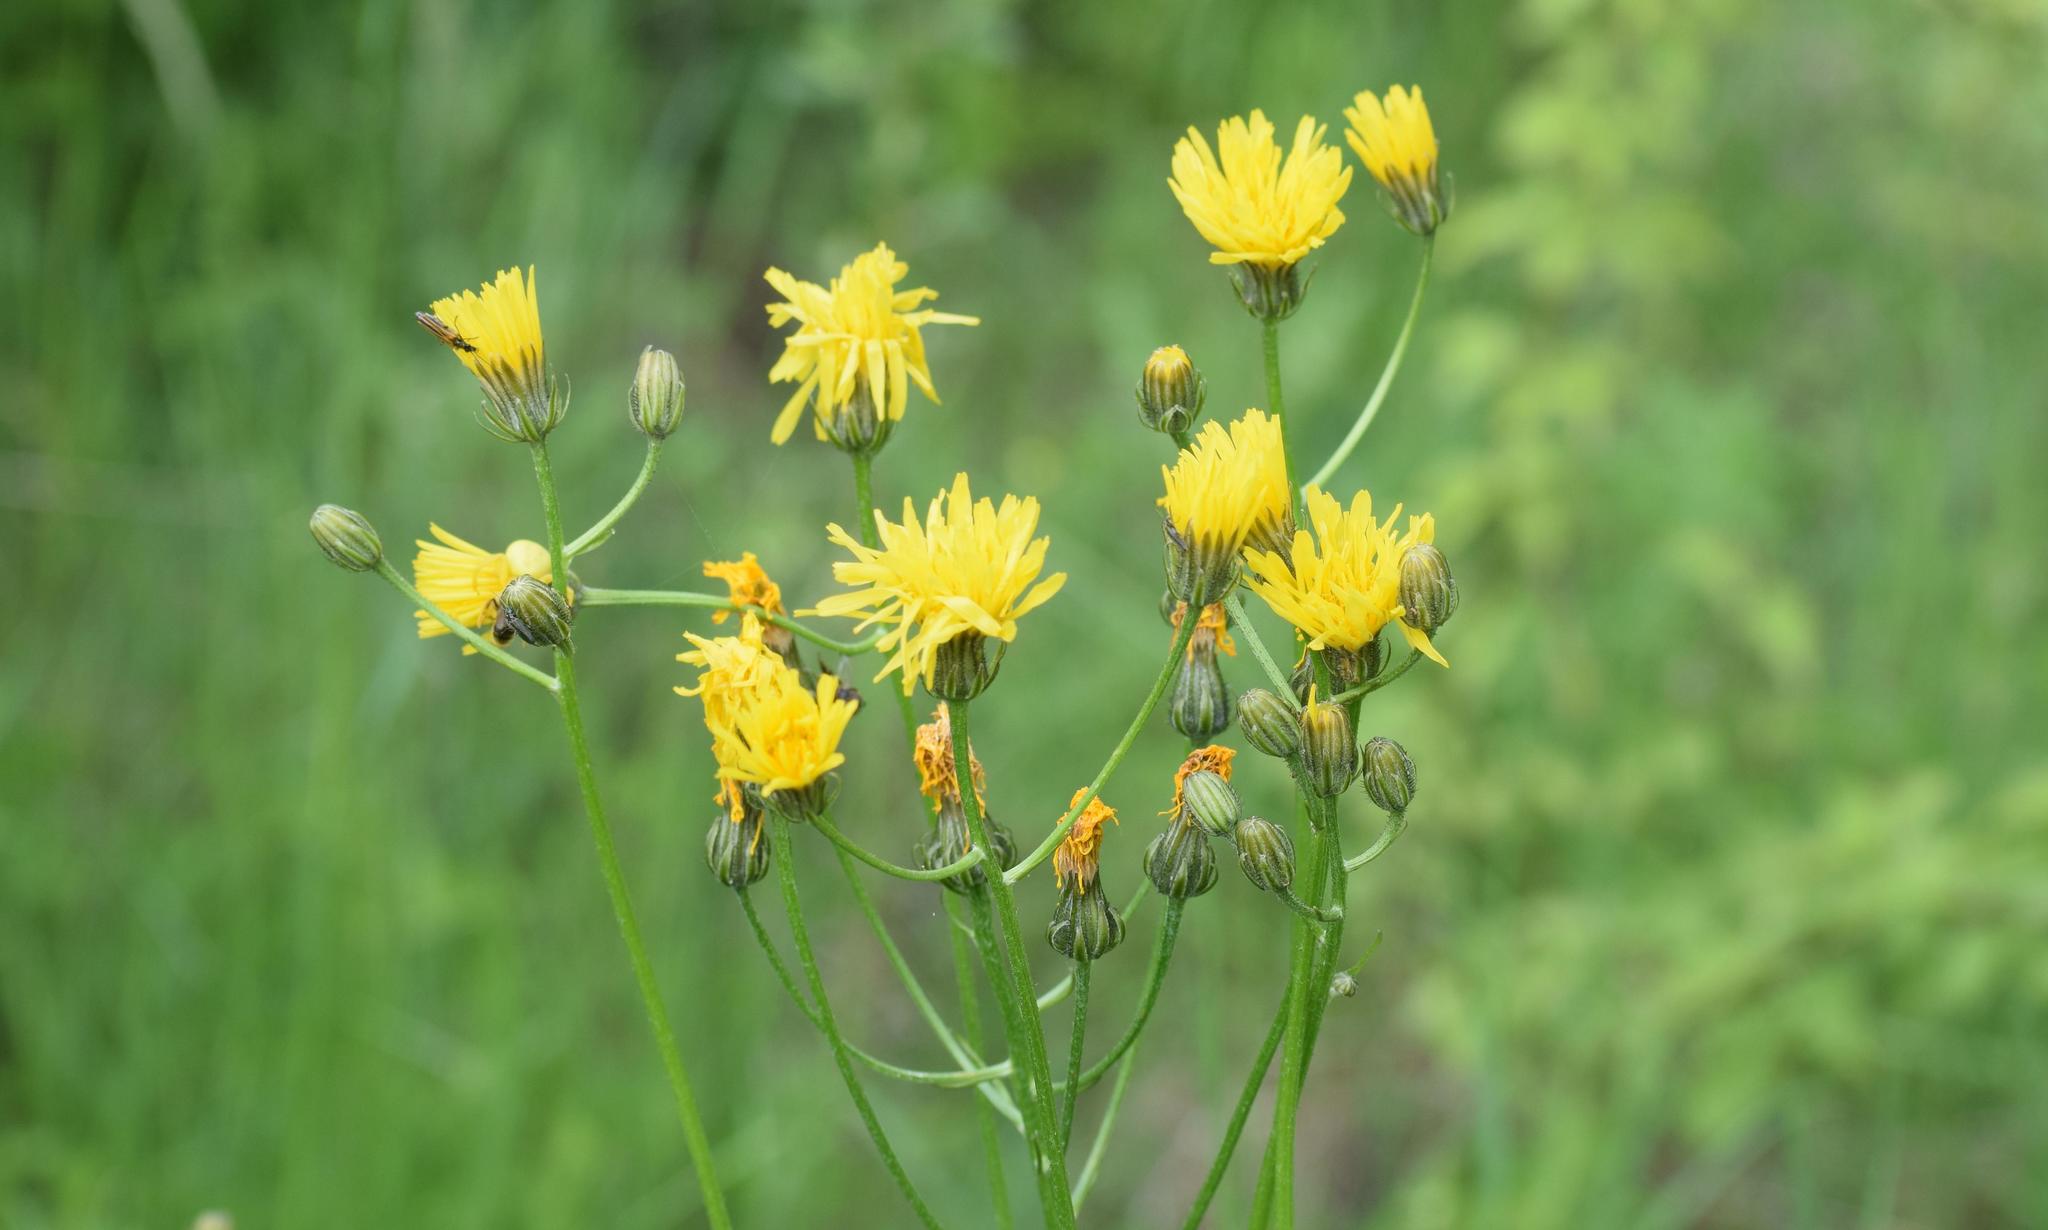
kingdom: Plantae
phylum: Tracheophyta
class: Magnoliopsida
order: Asterales
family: Asteraceae
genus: Crepis
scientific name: Crepis biennis
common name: Rough hawk's-beard
